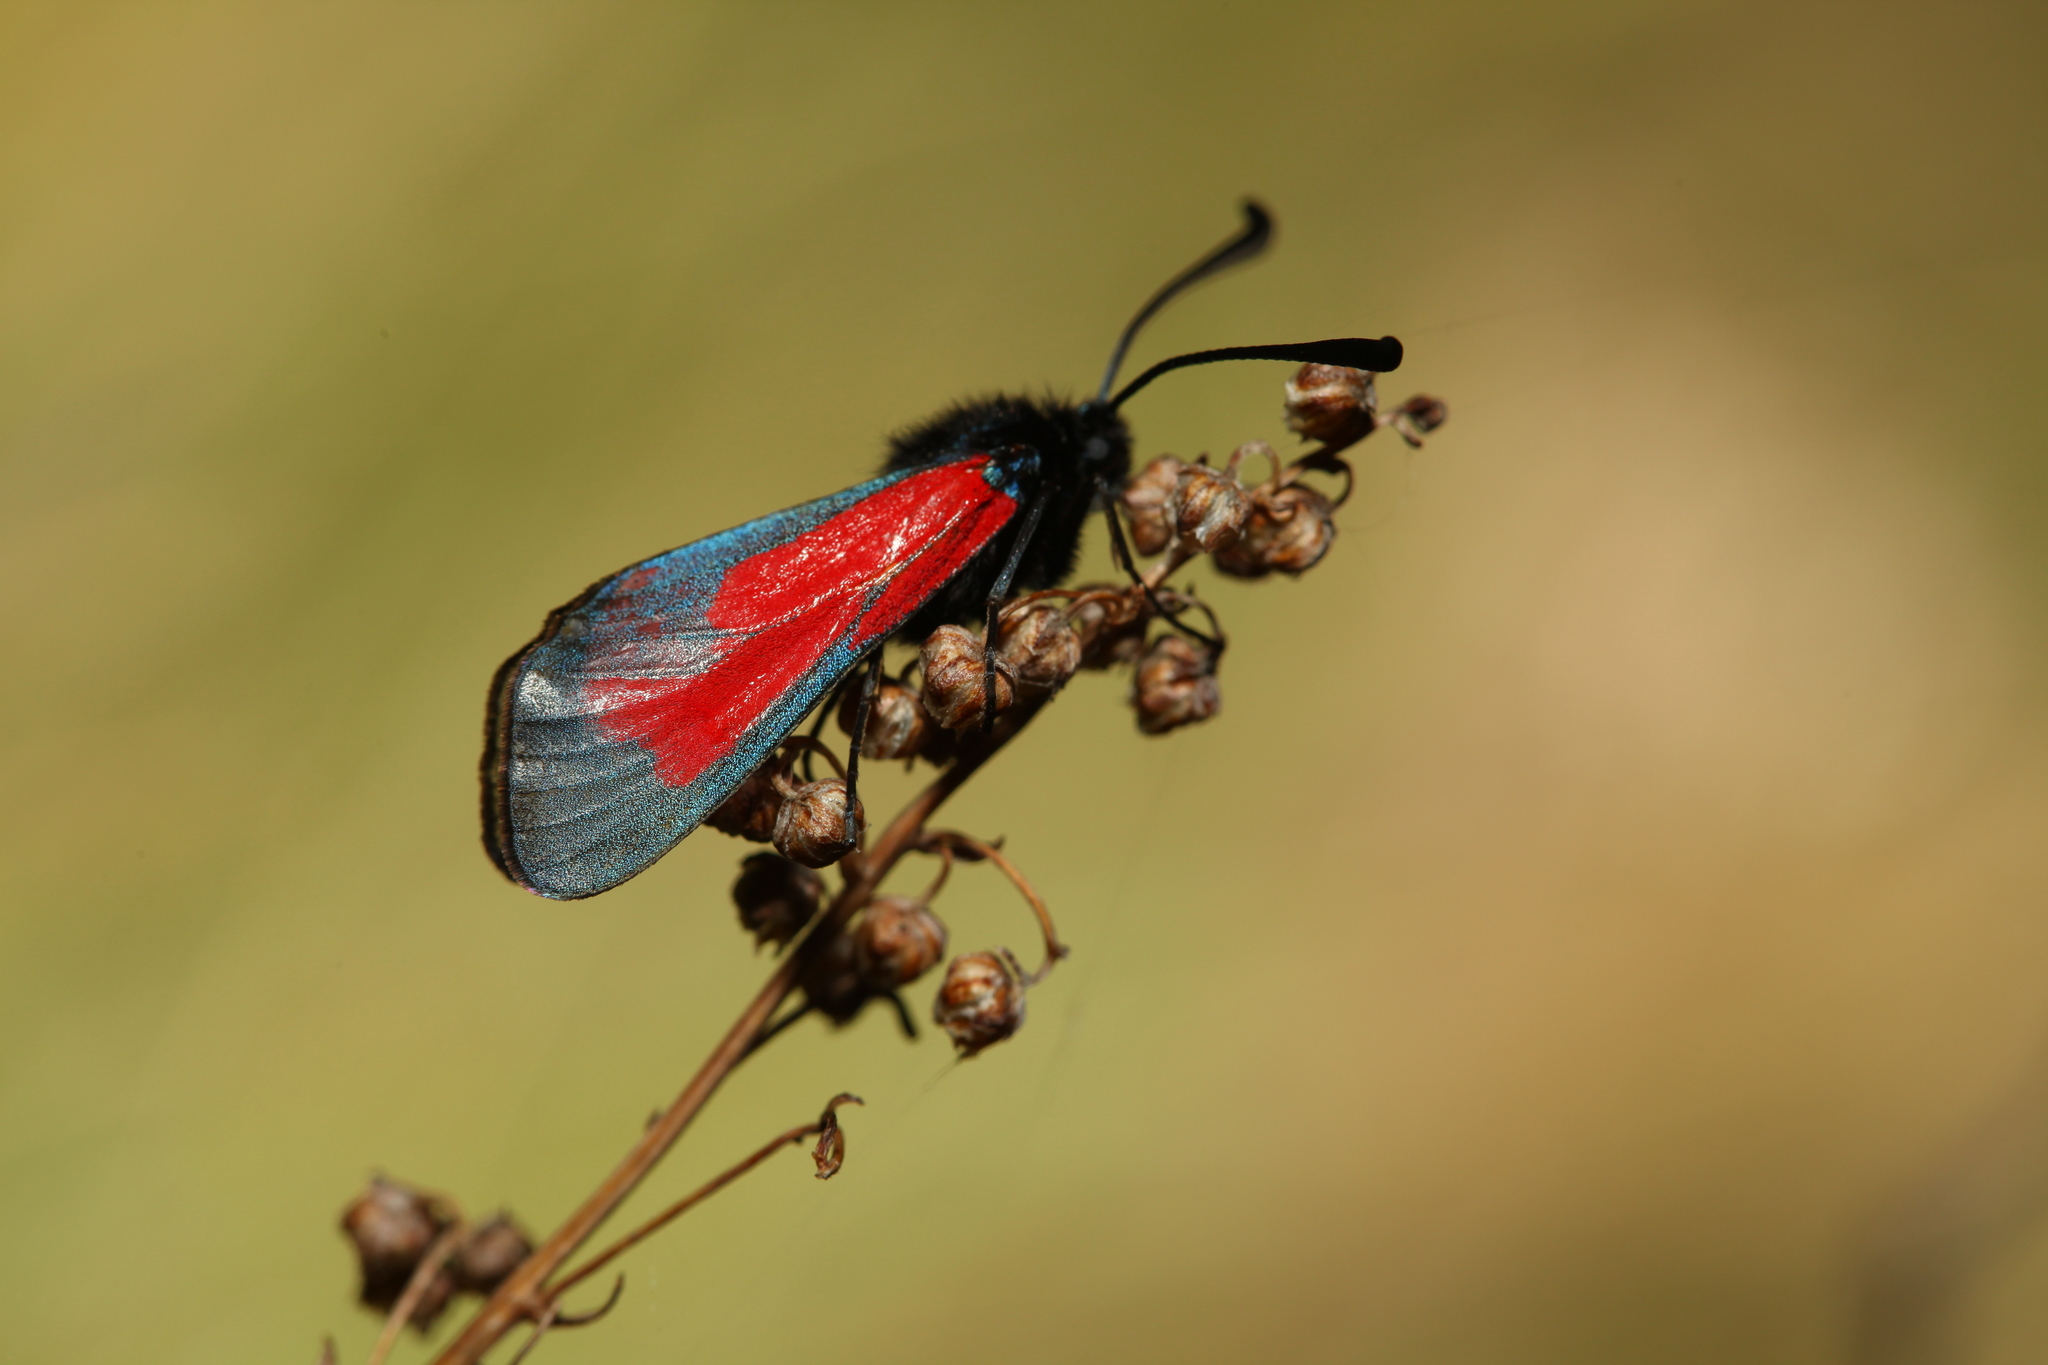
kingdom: Animalia
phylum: Arthropoda
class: Insecta
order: Lepidoptera
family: Zygaenidae
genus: Zygaena
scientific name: Zygaena purpuralis
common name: Transparent burnet
